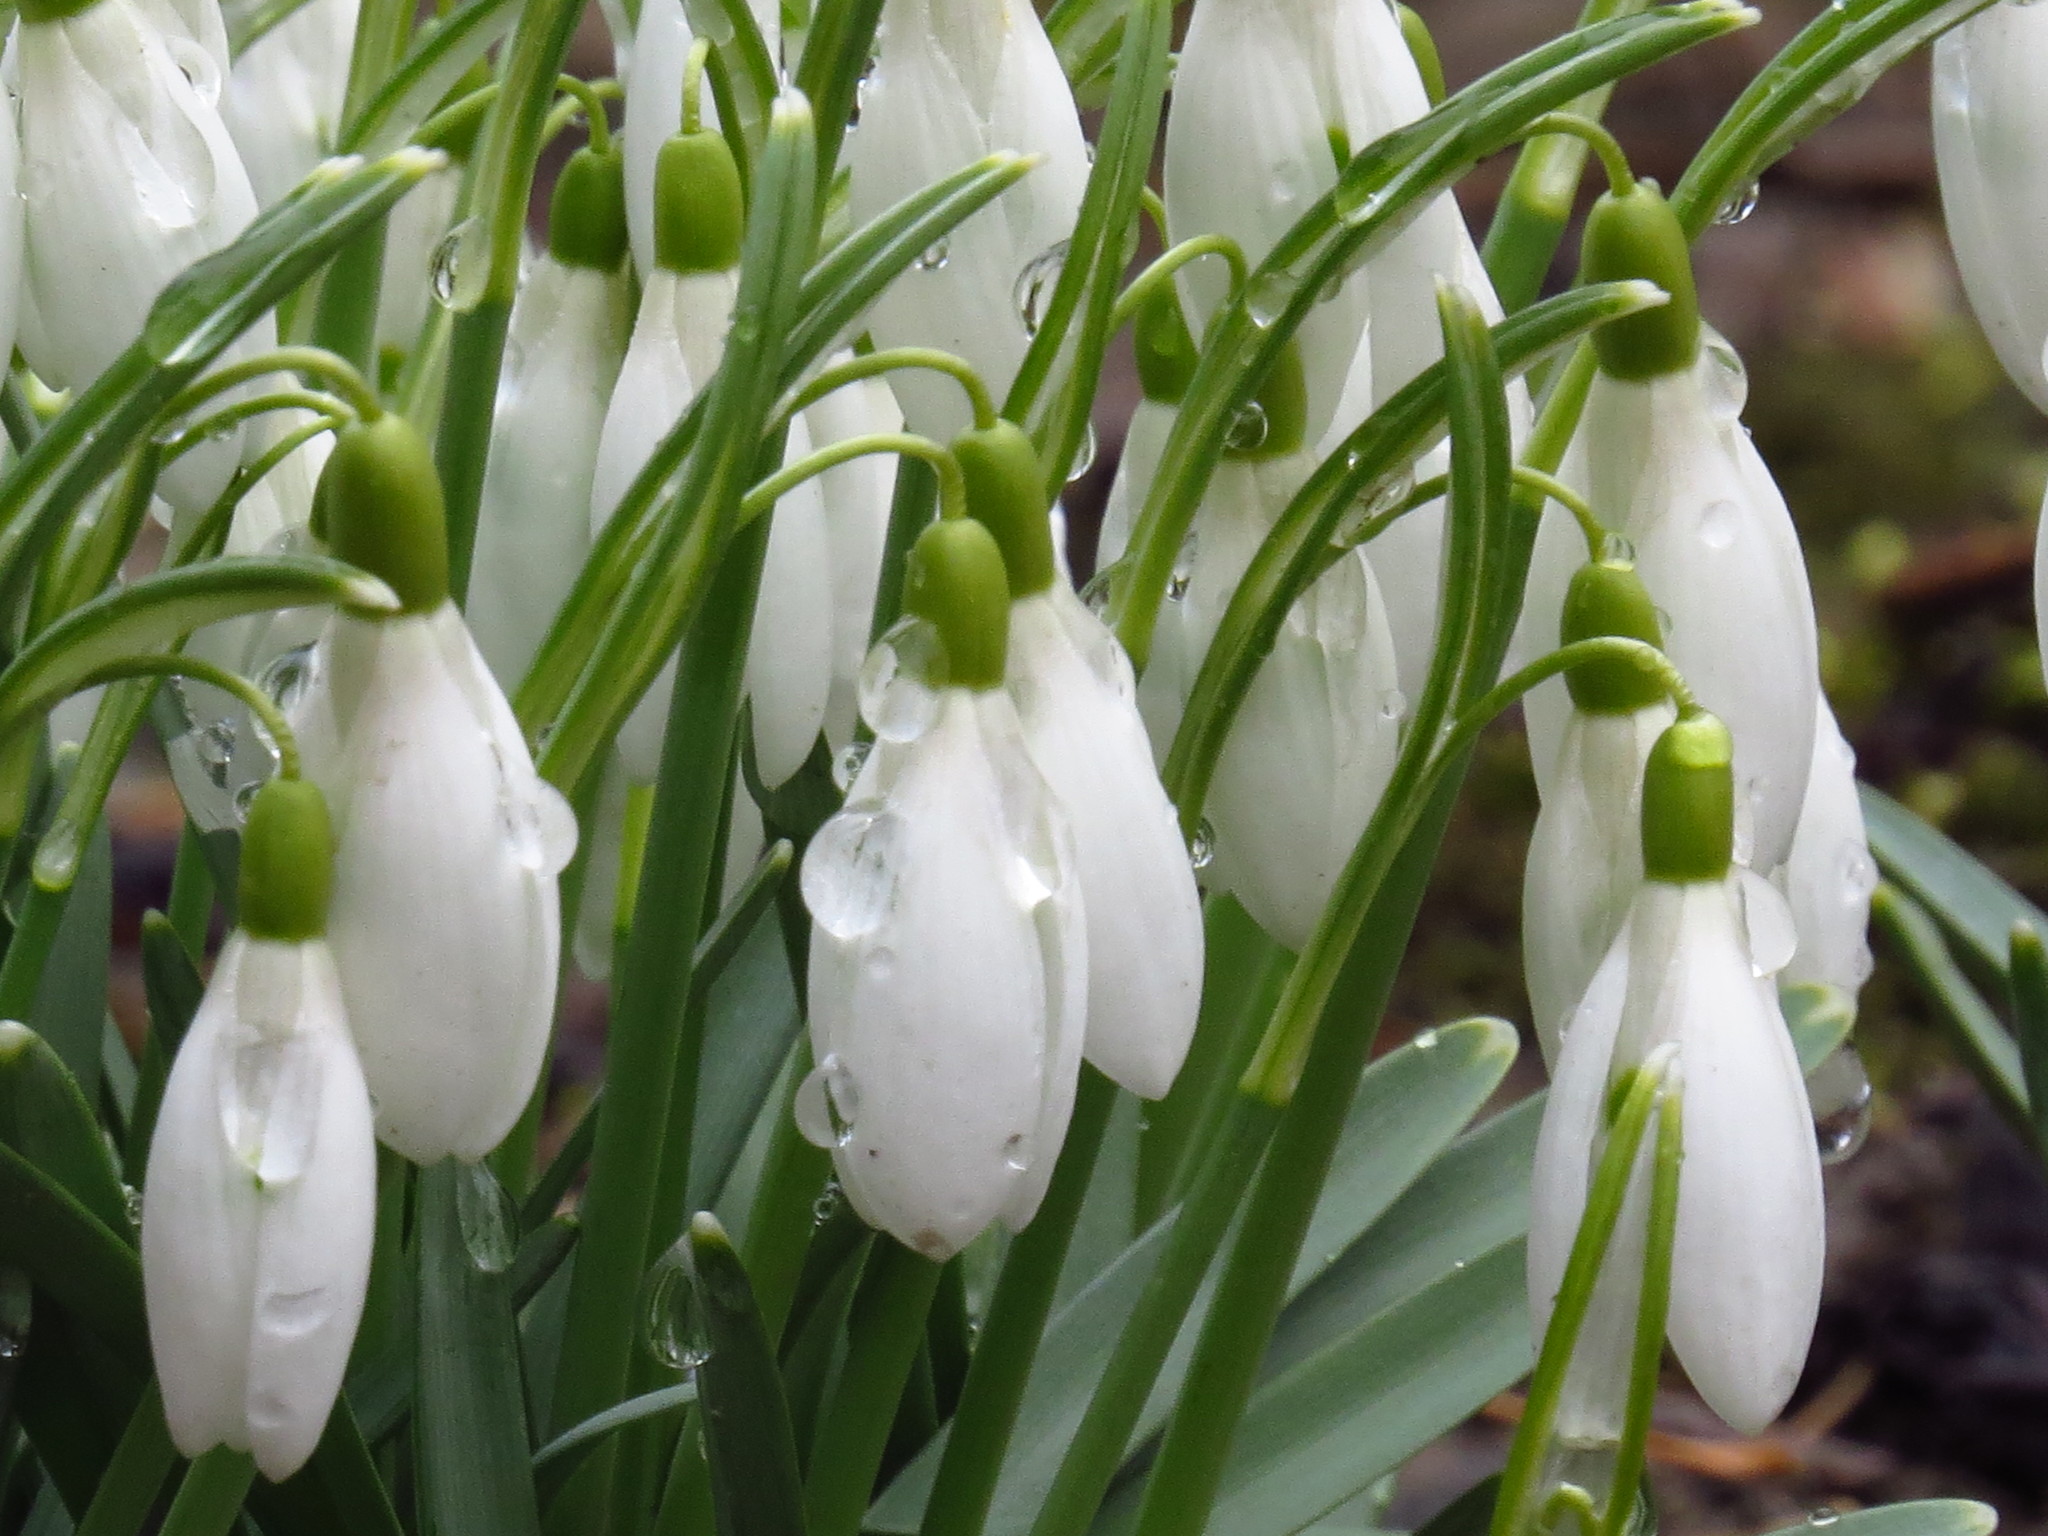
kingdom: Plantae
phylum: Tracheophyta
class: Liliopsida
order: Asparagales
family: Amaryllidaceae
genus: Galanthus
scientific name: Galanthus nivalis
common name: Snowdrop
